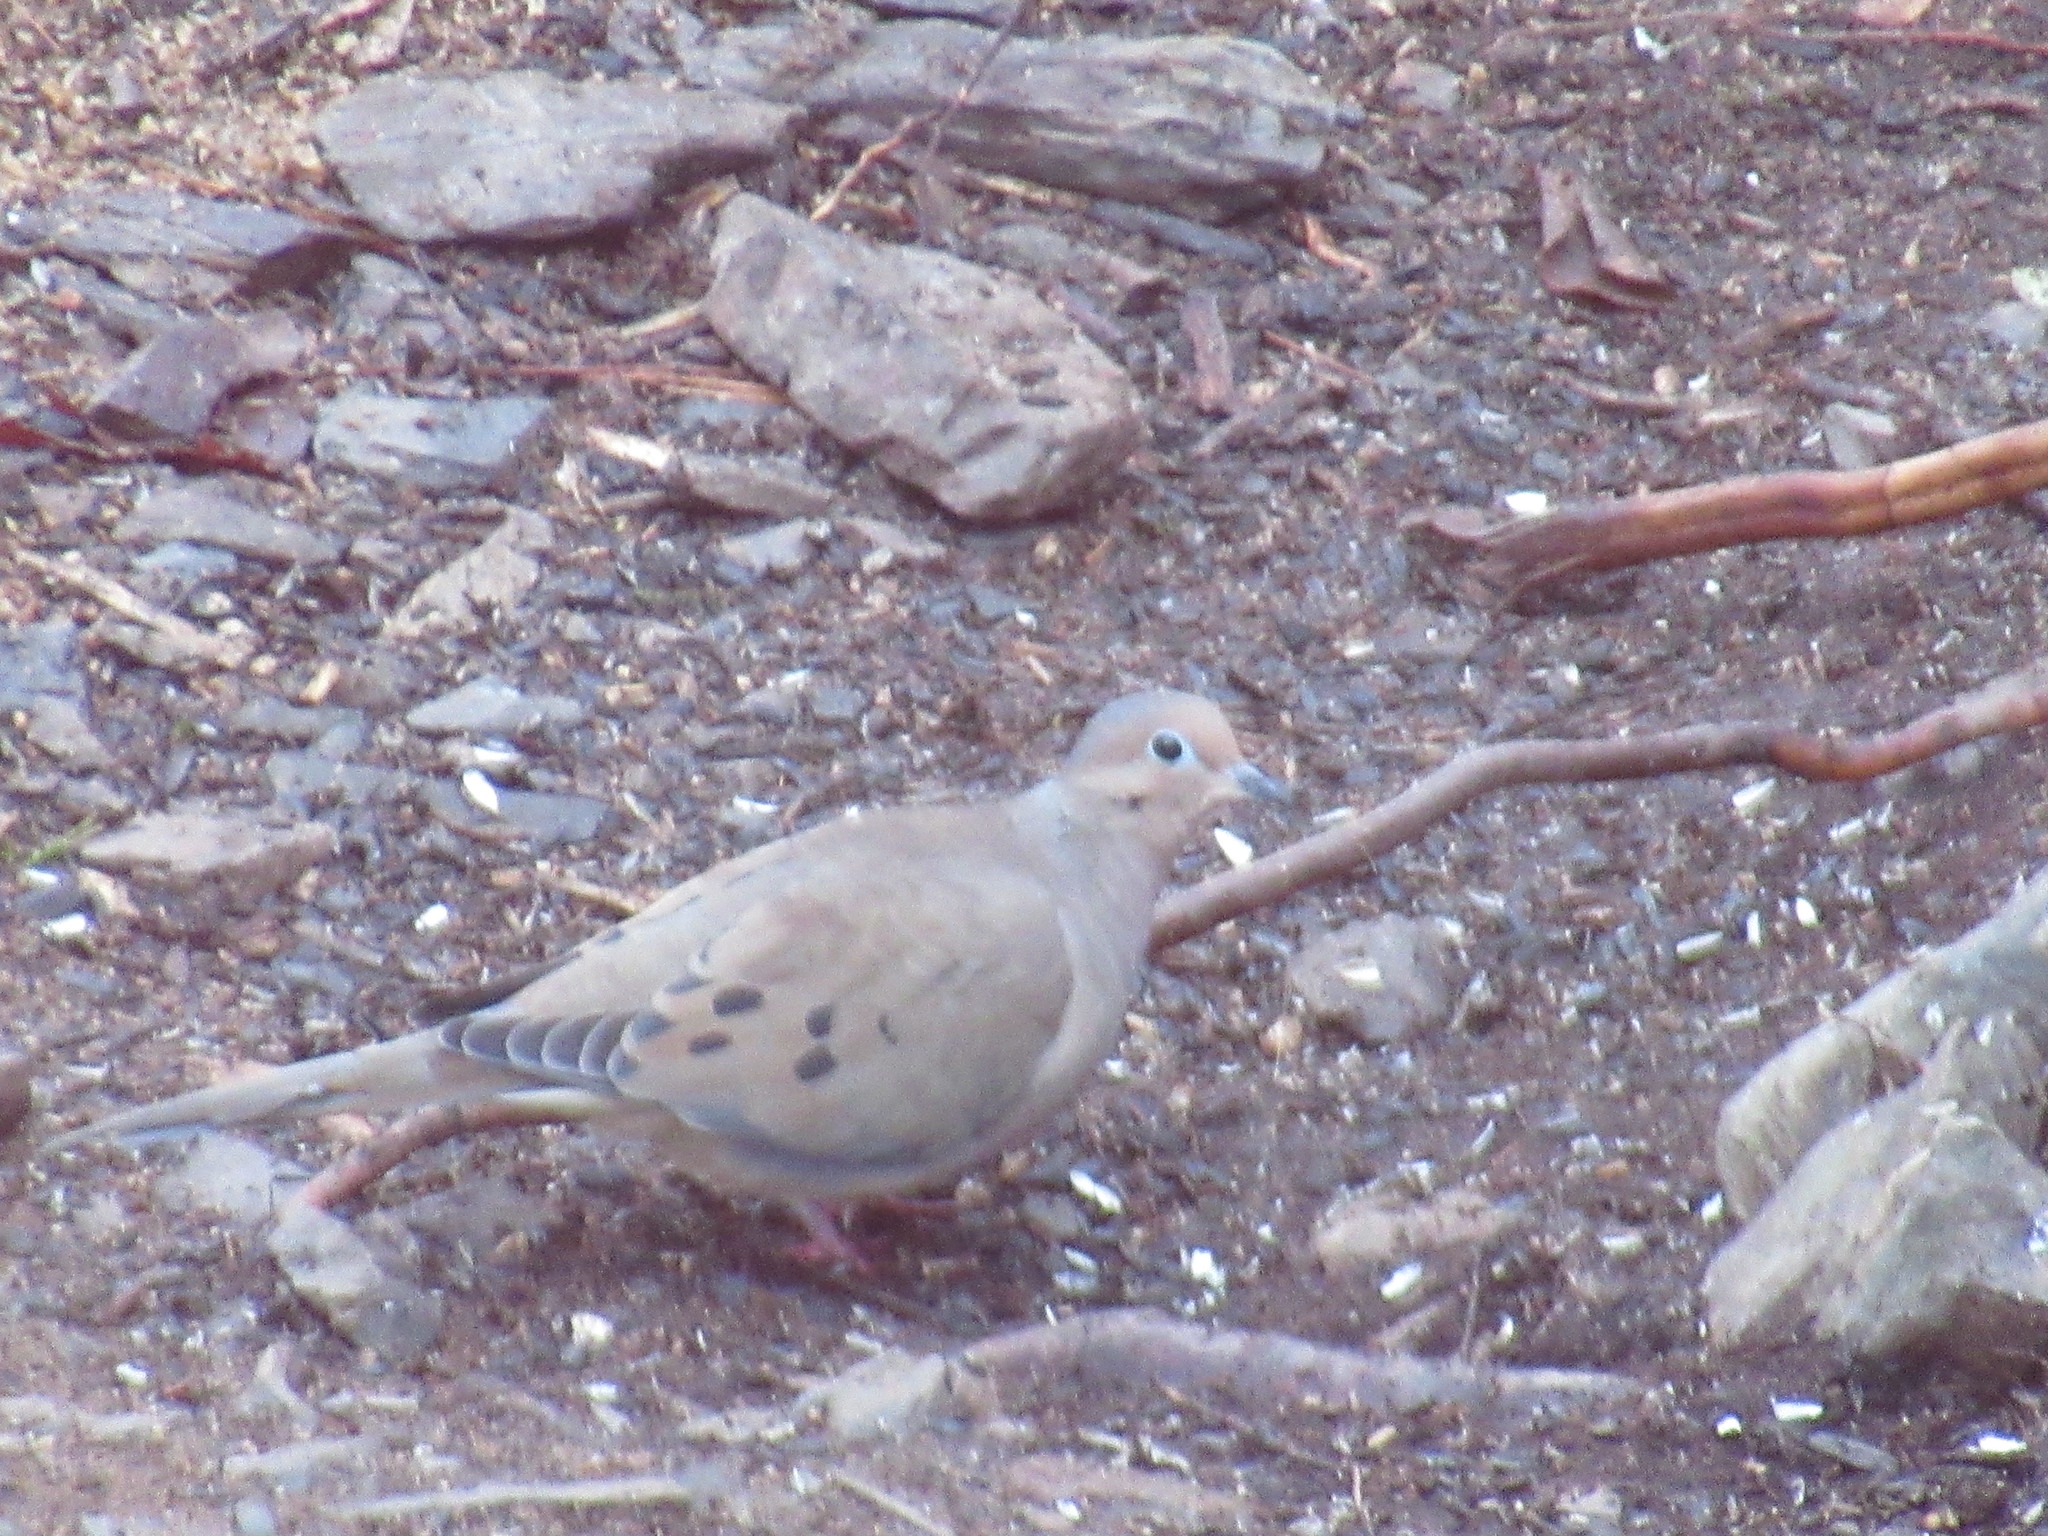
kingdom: Animalia
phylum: Chordata
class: Aves
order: Columbiformes
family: Columbidae
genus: Zenaida
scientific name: Zenaida macroura
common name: Mourning dove
